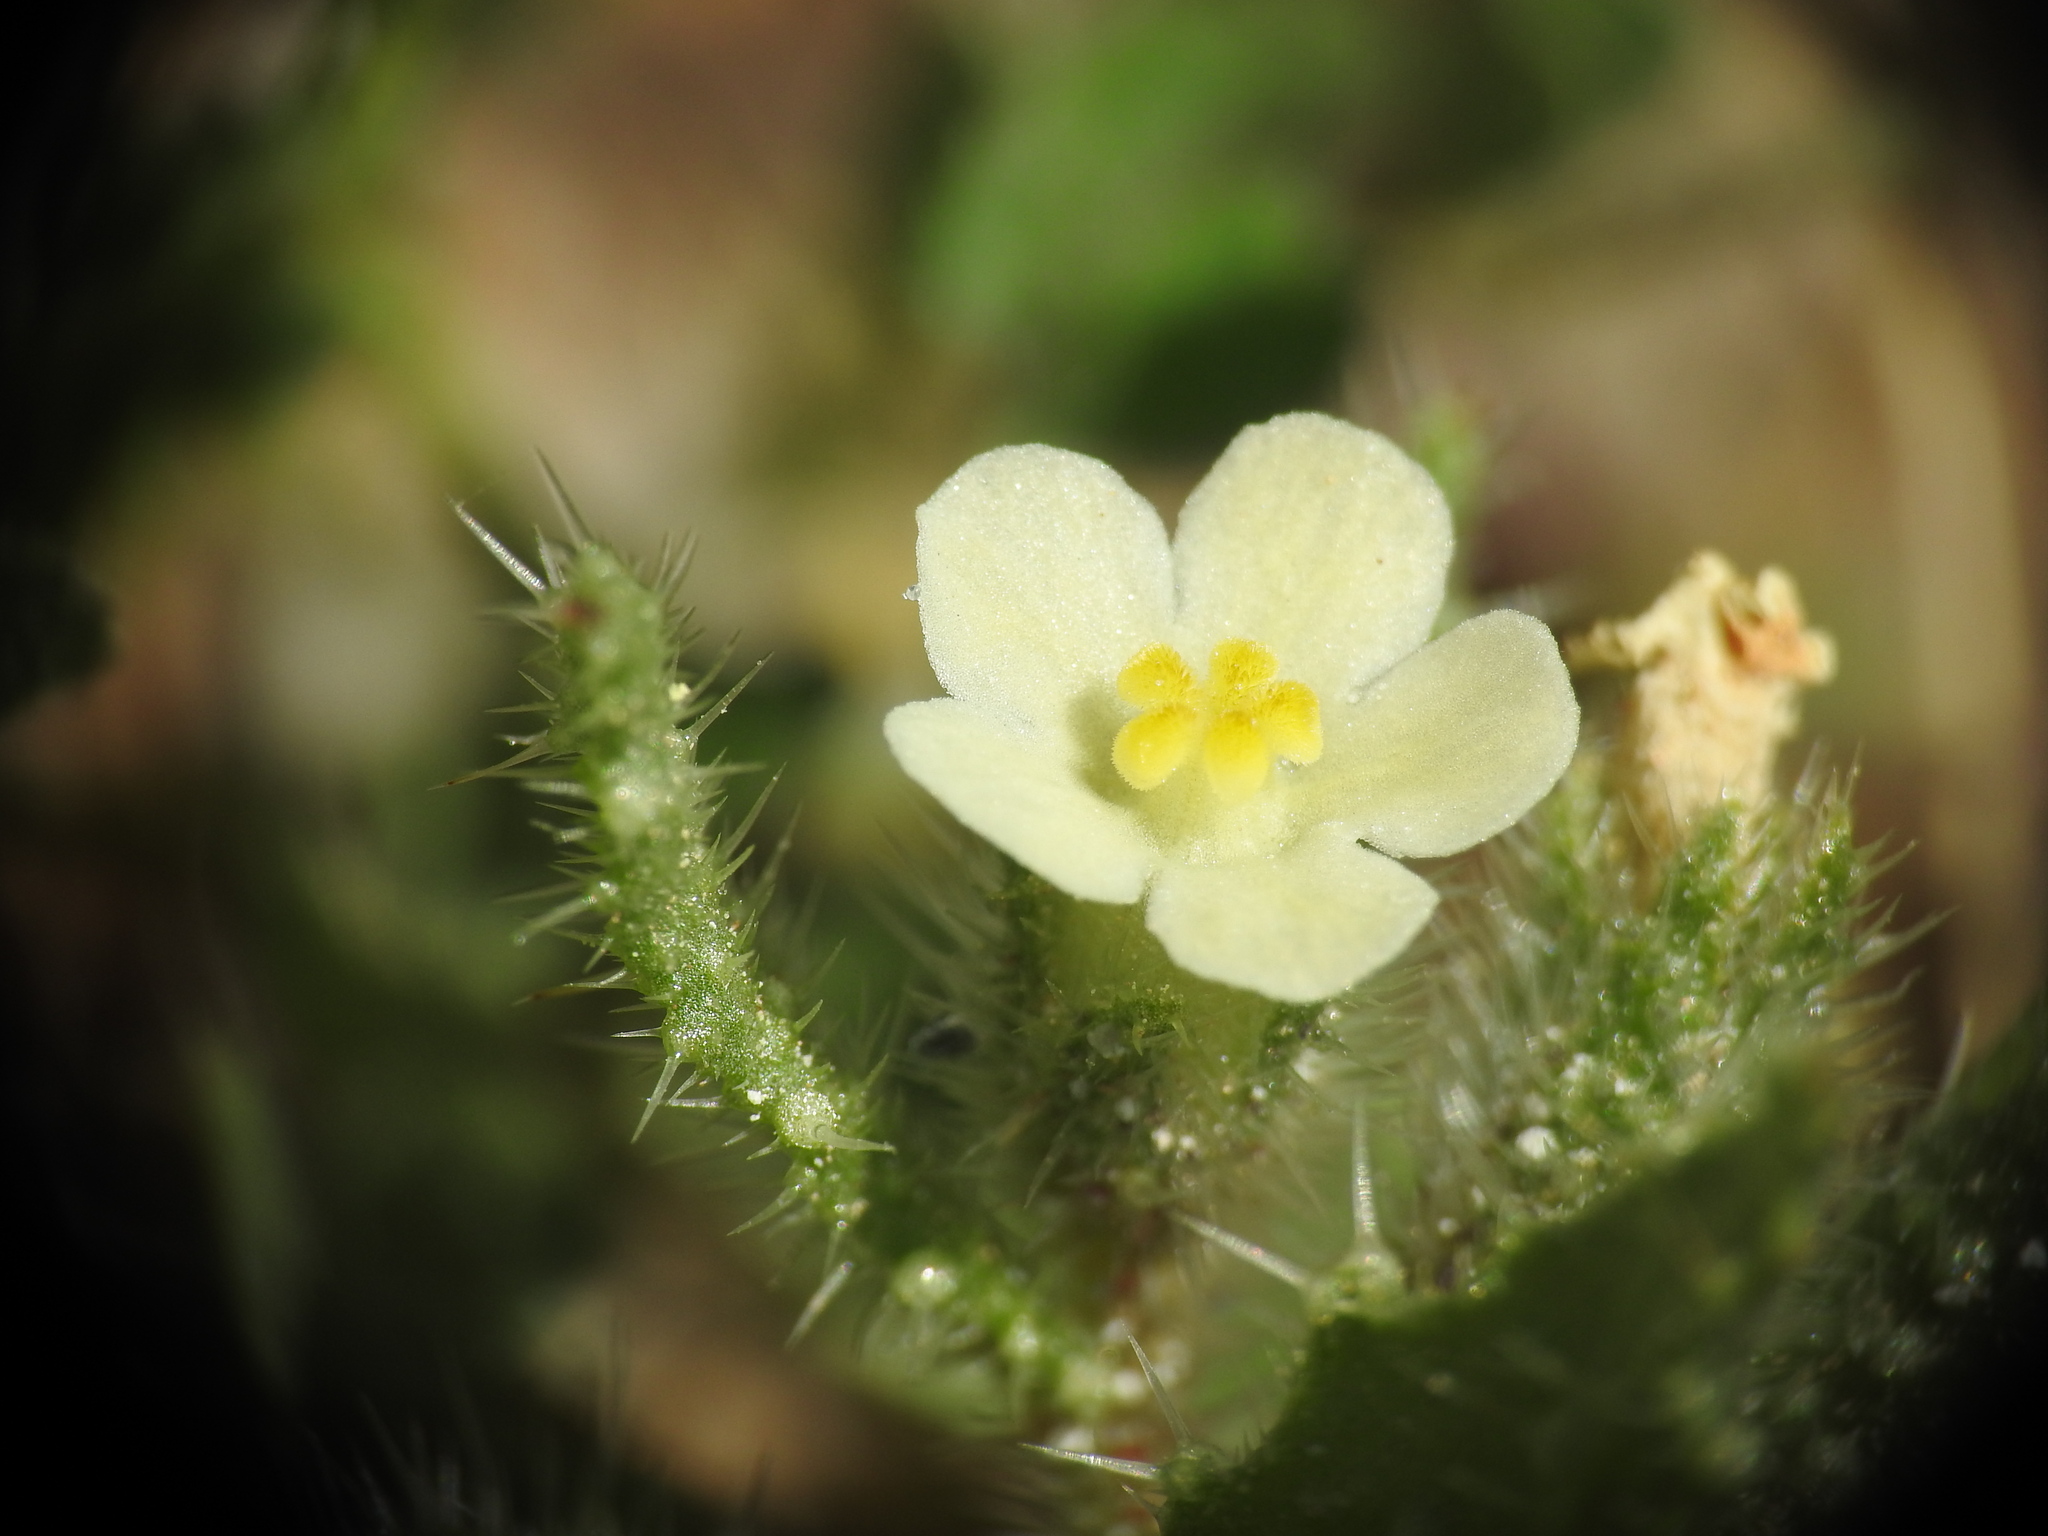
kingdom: Plantae
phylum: Tracheophyta
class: Magnoliopsida
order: Boraginales
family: Boraginaceae
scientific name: Boraginaceae
